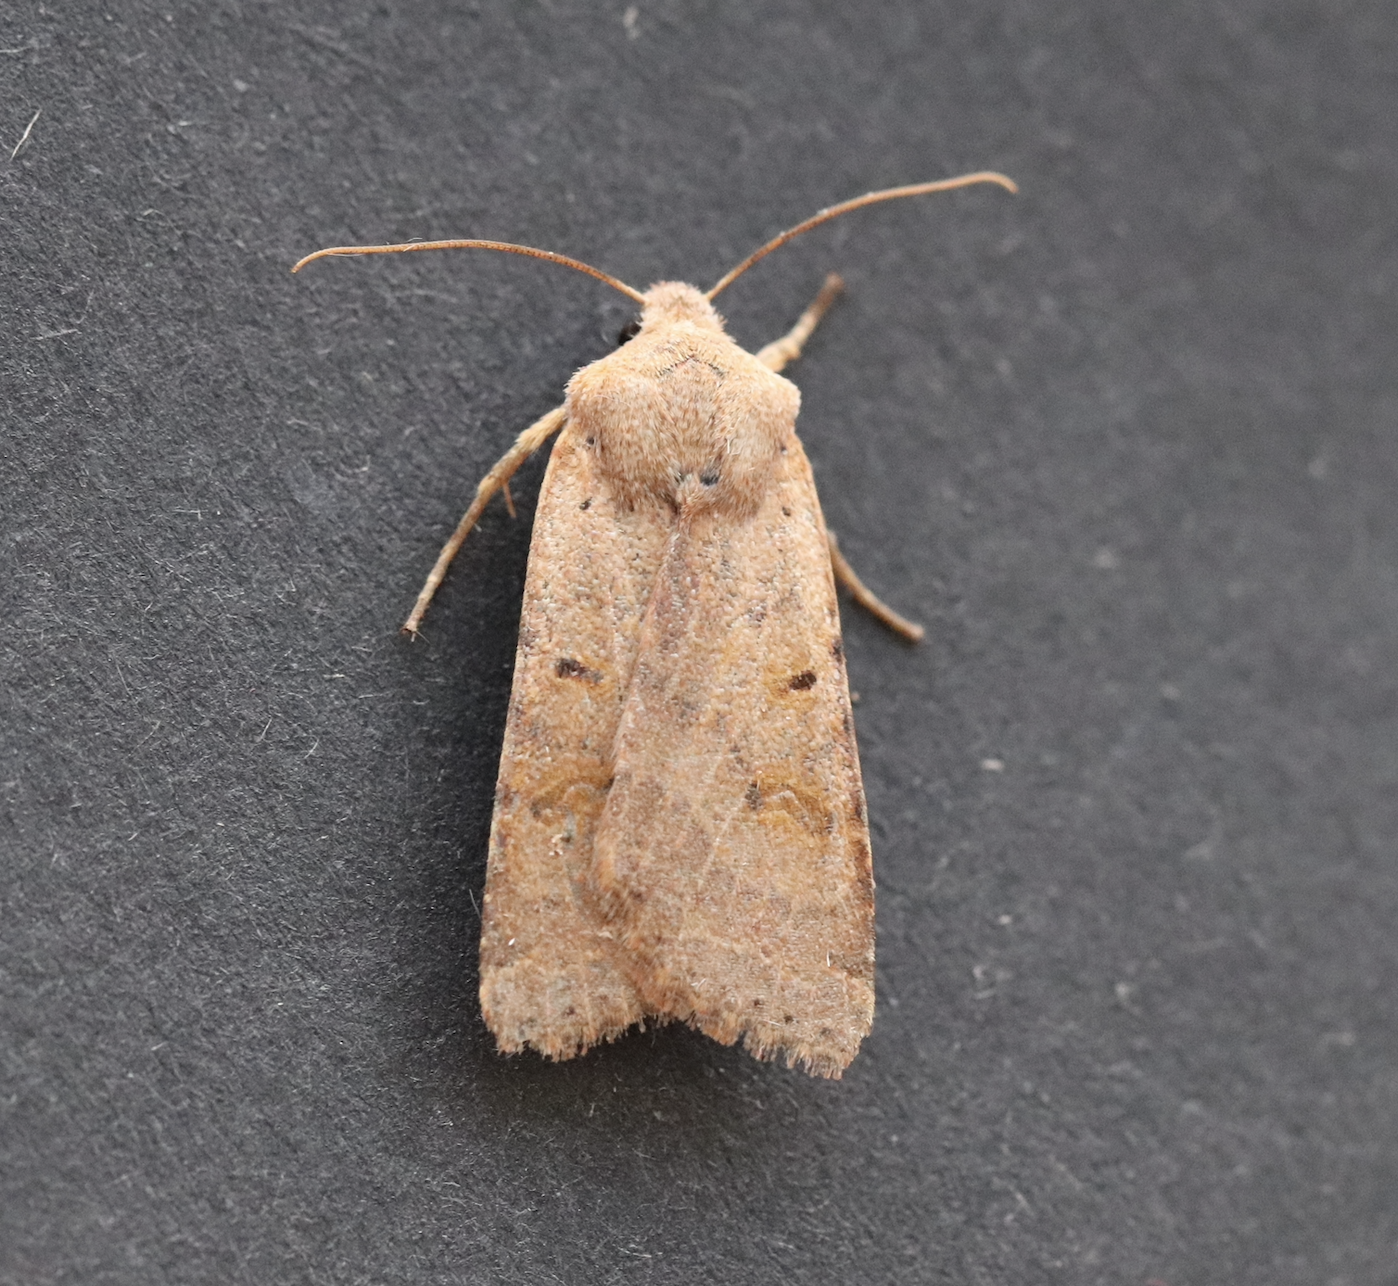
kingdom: Animalia
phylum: Arthropoda
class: Insecta
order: Lepidoptera
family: Noctuidae
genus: Agrochola
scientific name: Agrochola lychnidis
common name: Beaded chestnut
